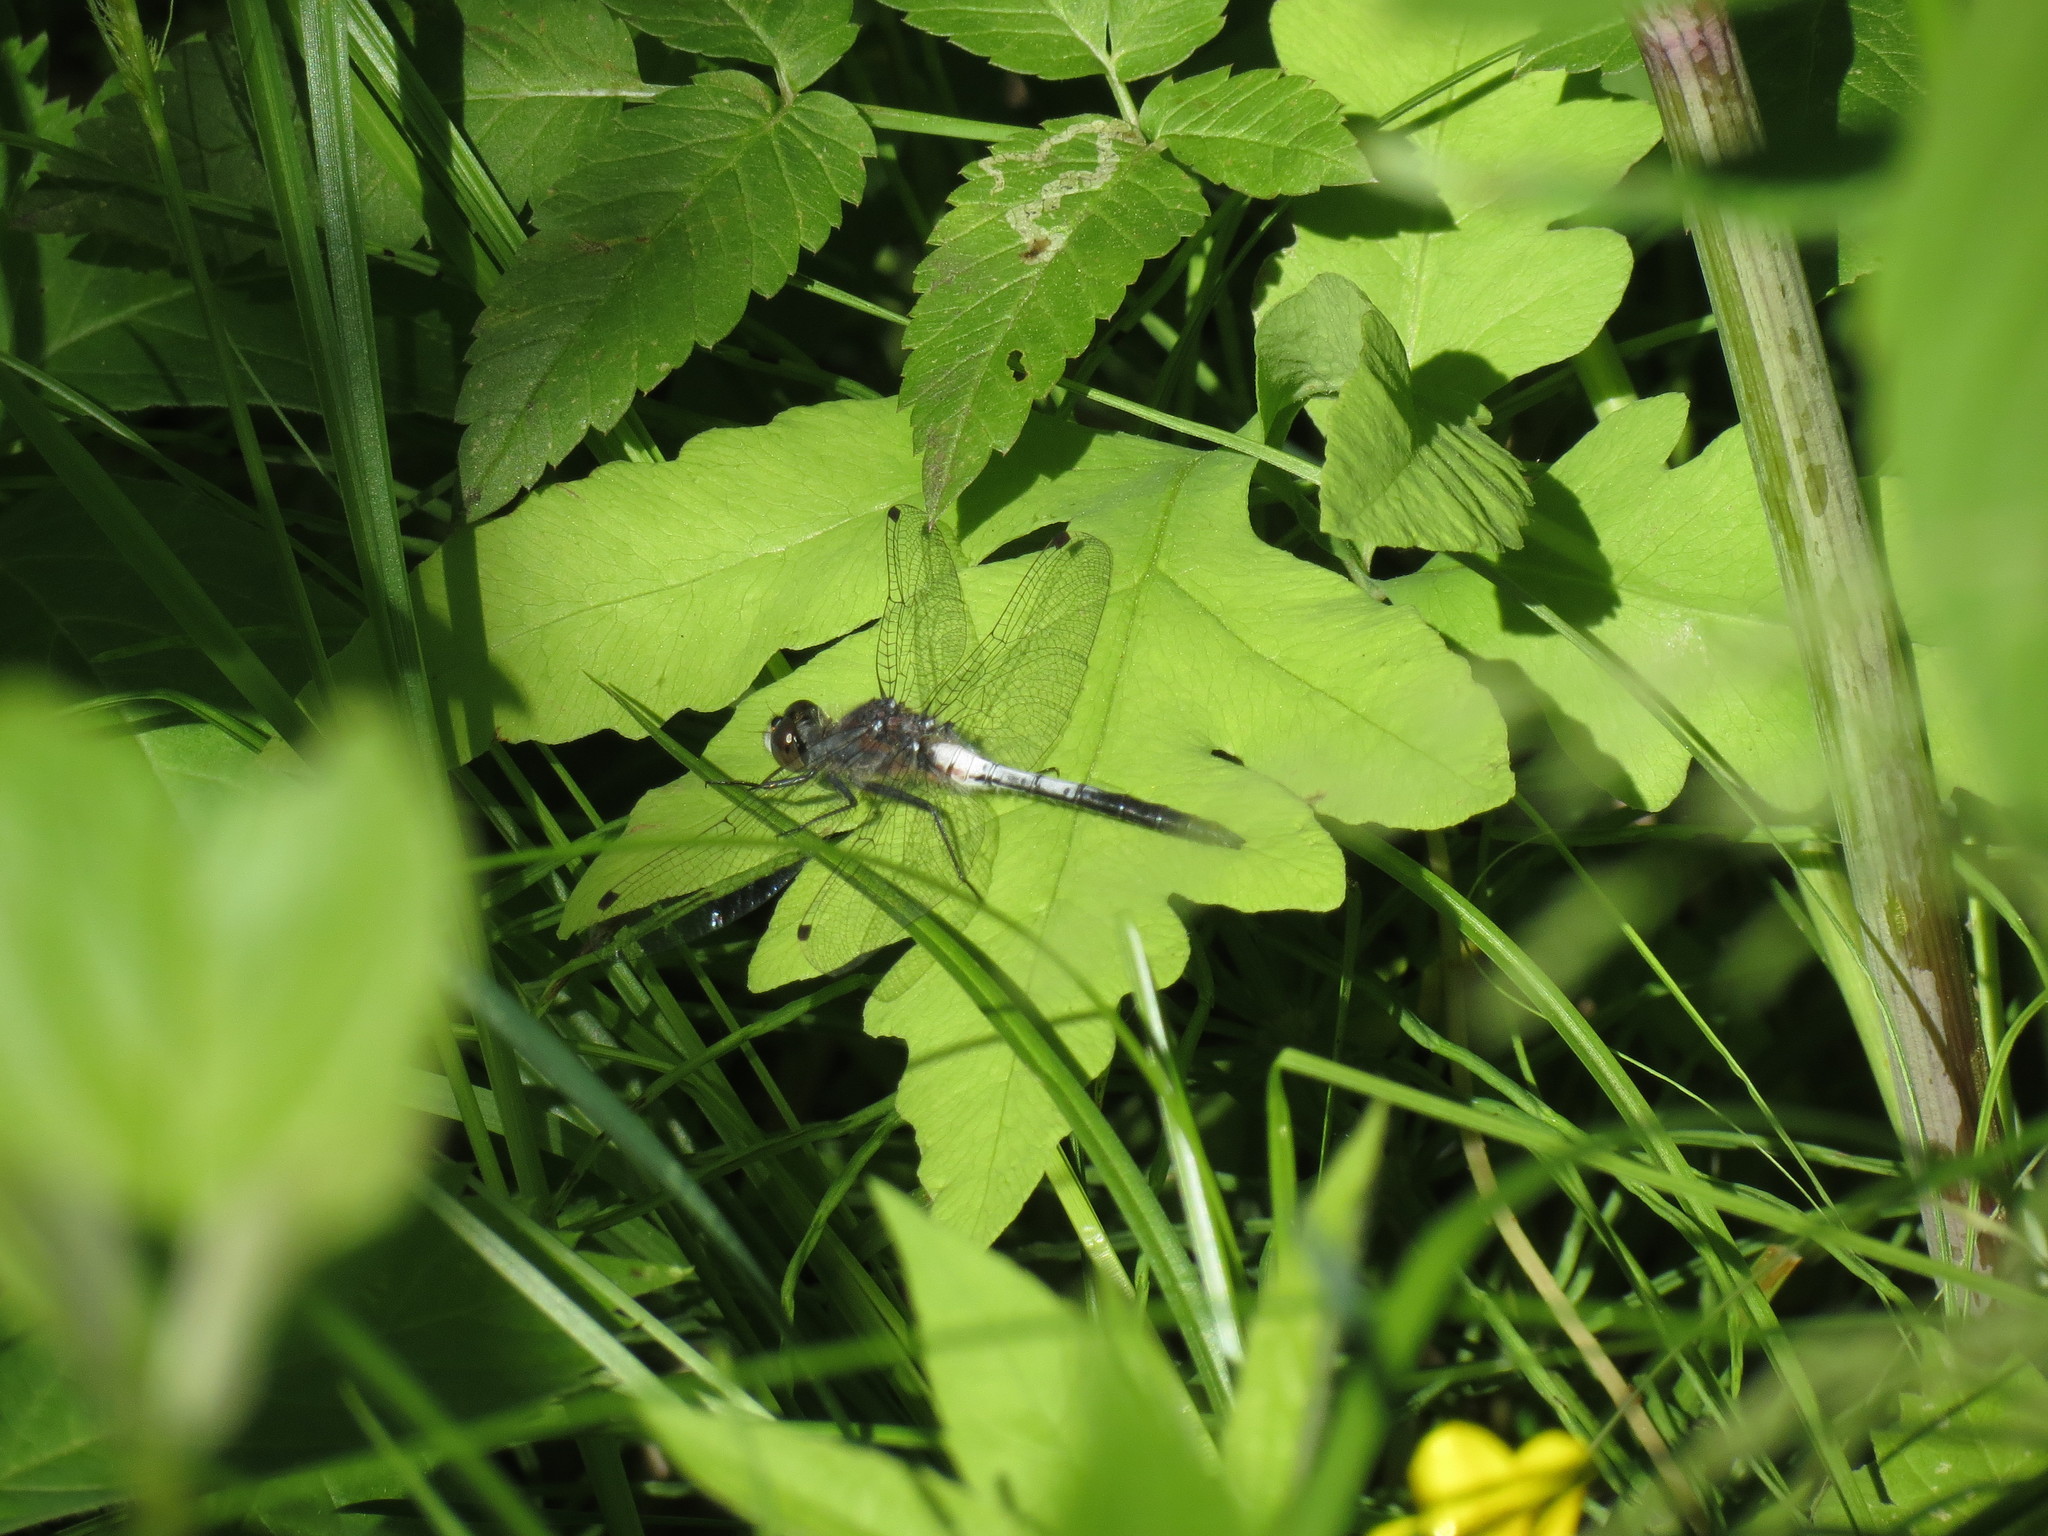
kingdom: Animalia
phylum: Arthropoda
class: Insecta
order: Odonata
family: Libellulidae
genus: Leucorrhinia
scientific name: Leucorrhinia proxima
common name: Belted whiteface
